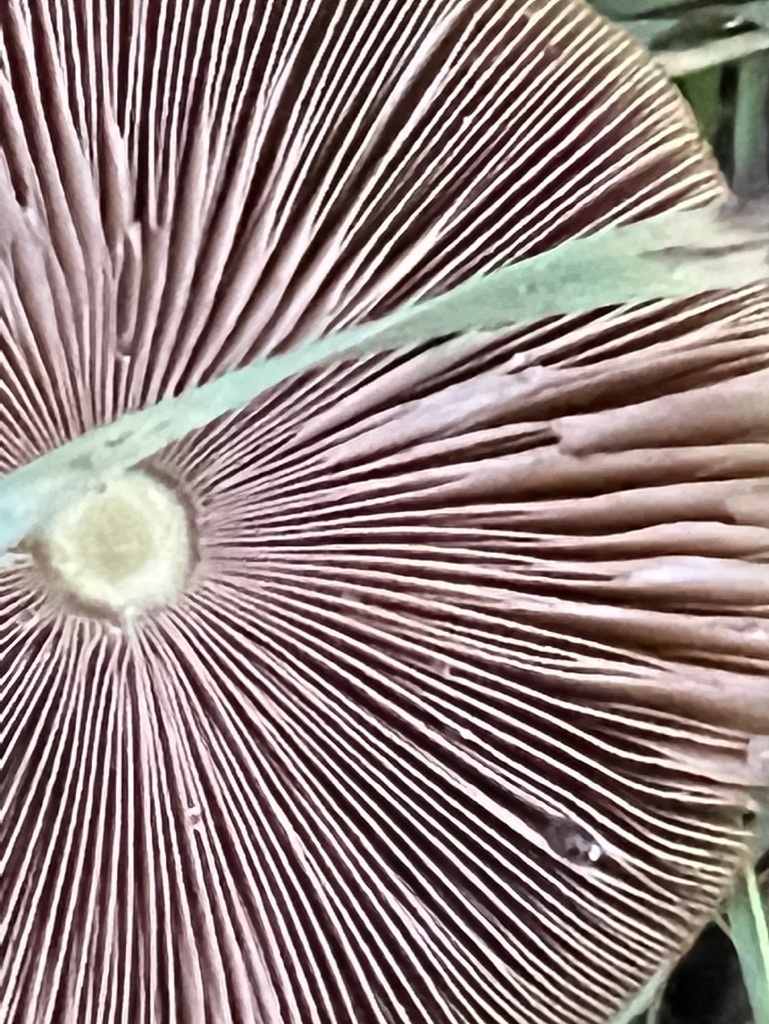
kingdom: Fungi
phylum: Basidiomycota
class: Agaricomycetes
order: Agaricales
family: Bolbitiaceae
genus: Bolbitius
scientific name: Bolbitius titubans
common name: Yellow fieldcap
